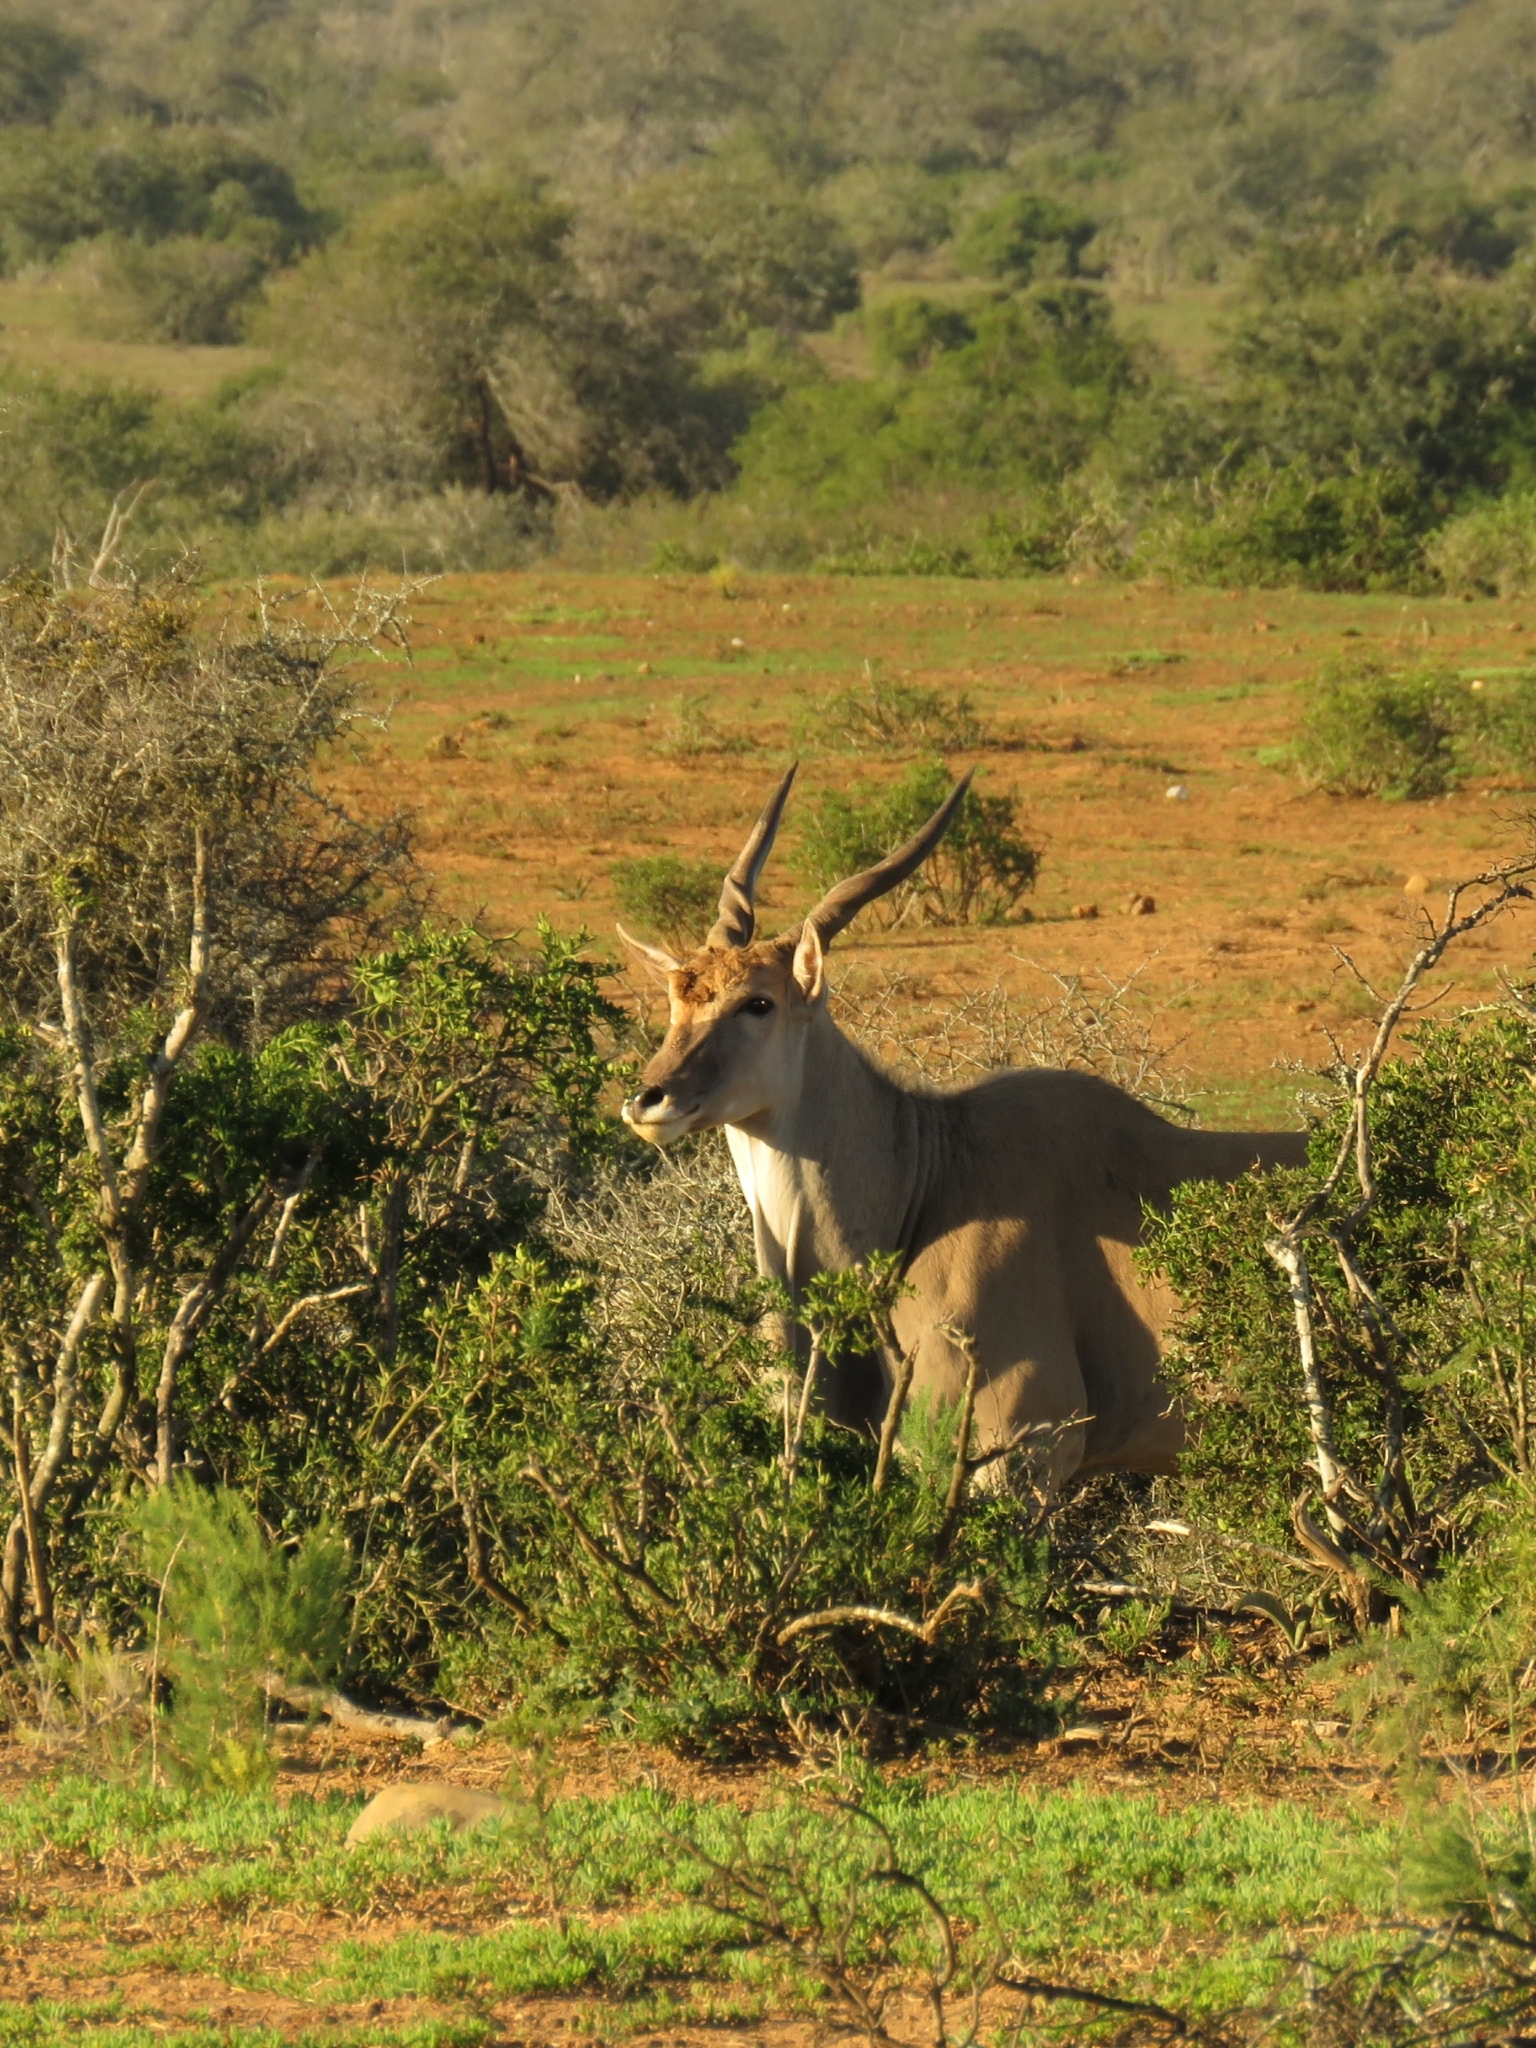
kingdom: Animalia
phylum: Chordata
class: Mammalia
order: Artiodactyla
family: Bovidae
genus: Taurotragus
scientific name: Taurotragus oryx
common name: Common eland
